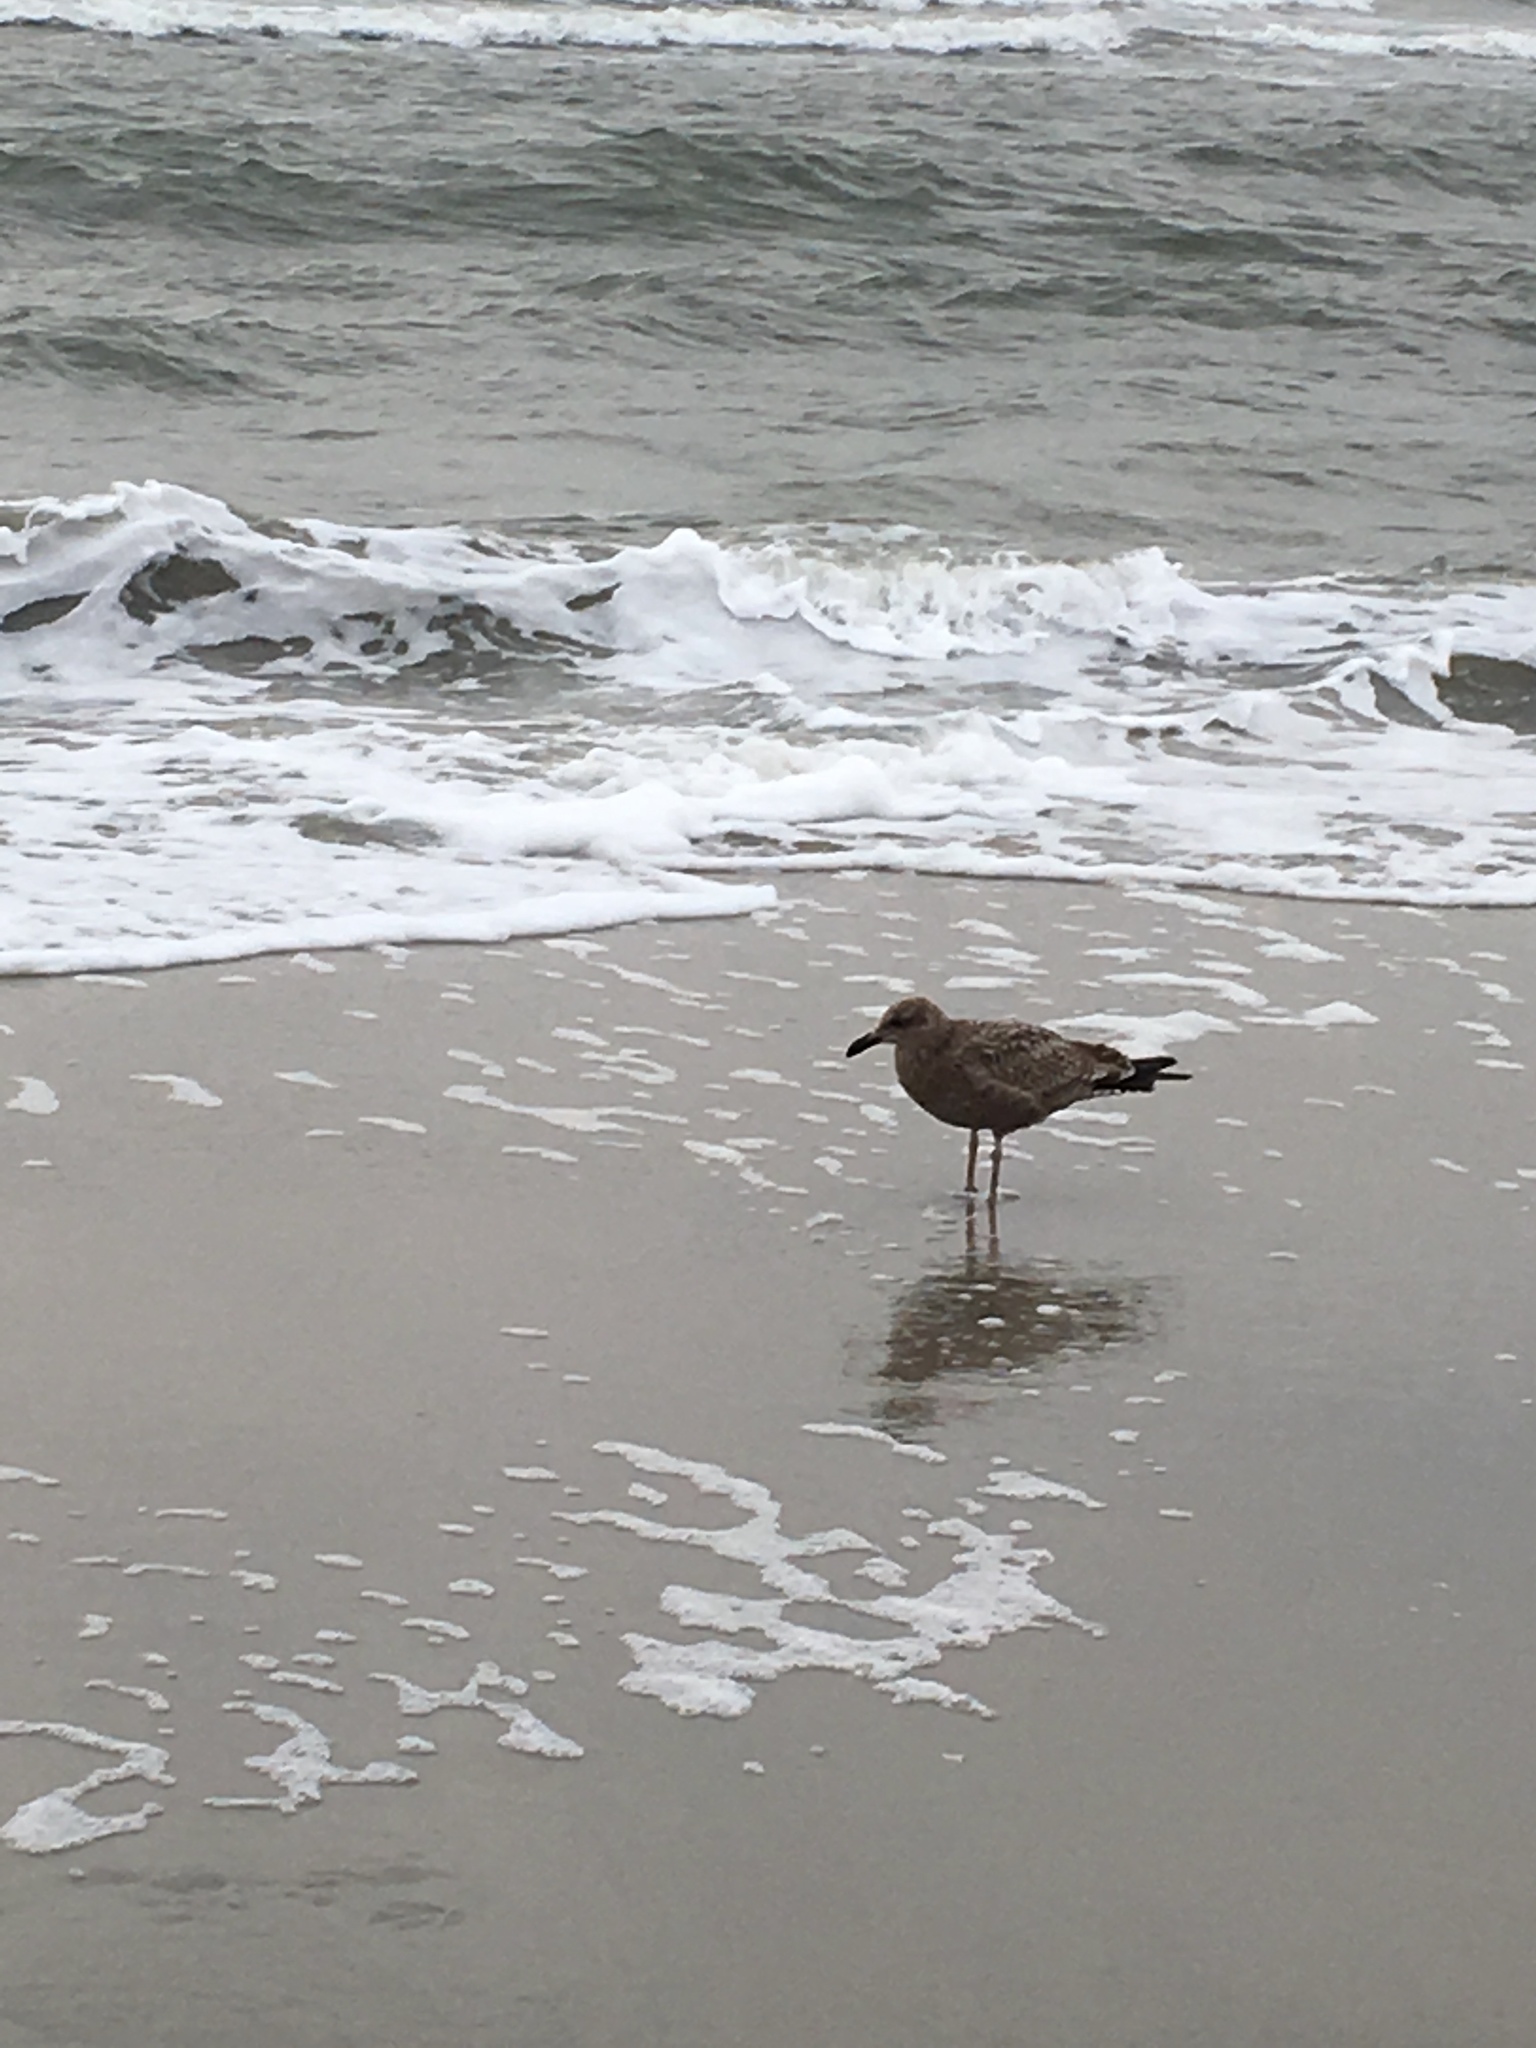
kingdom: Animalia
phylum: Chordata
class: Aves
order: Charadriiformes
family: Laridae
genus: Larus
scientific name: Larus argentatus
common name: Herring gull
